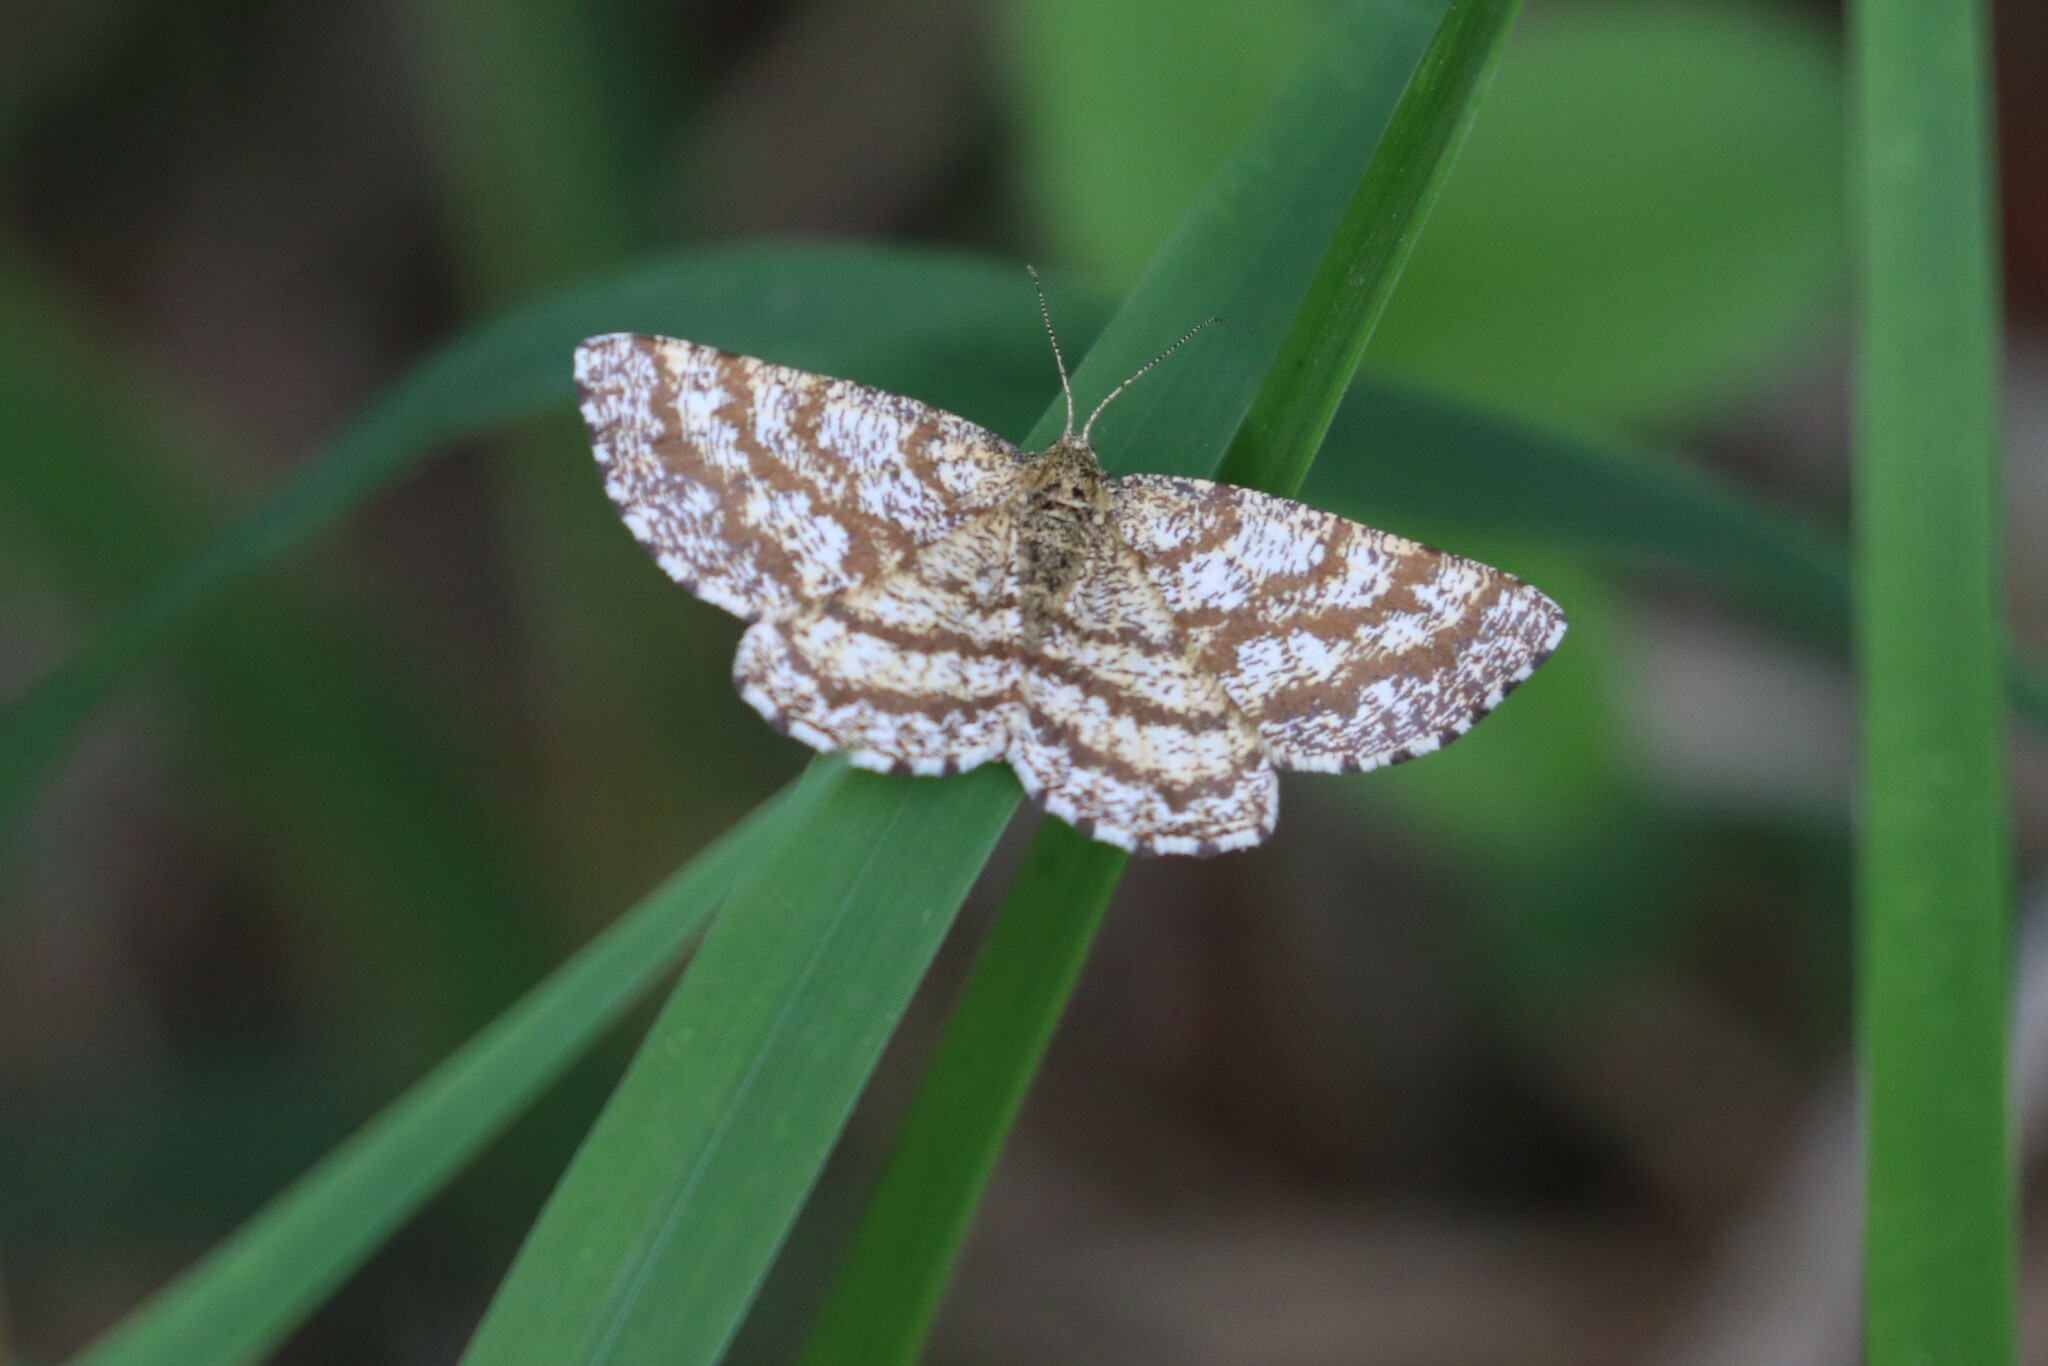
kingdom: Animalia
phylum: Arthropoda
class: Insecta
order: Lepidoptera
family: Geometridae
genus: Ematurga
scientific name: Ematurga atomaria
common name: Common heath
